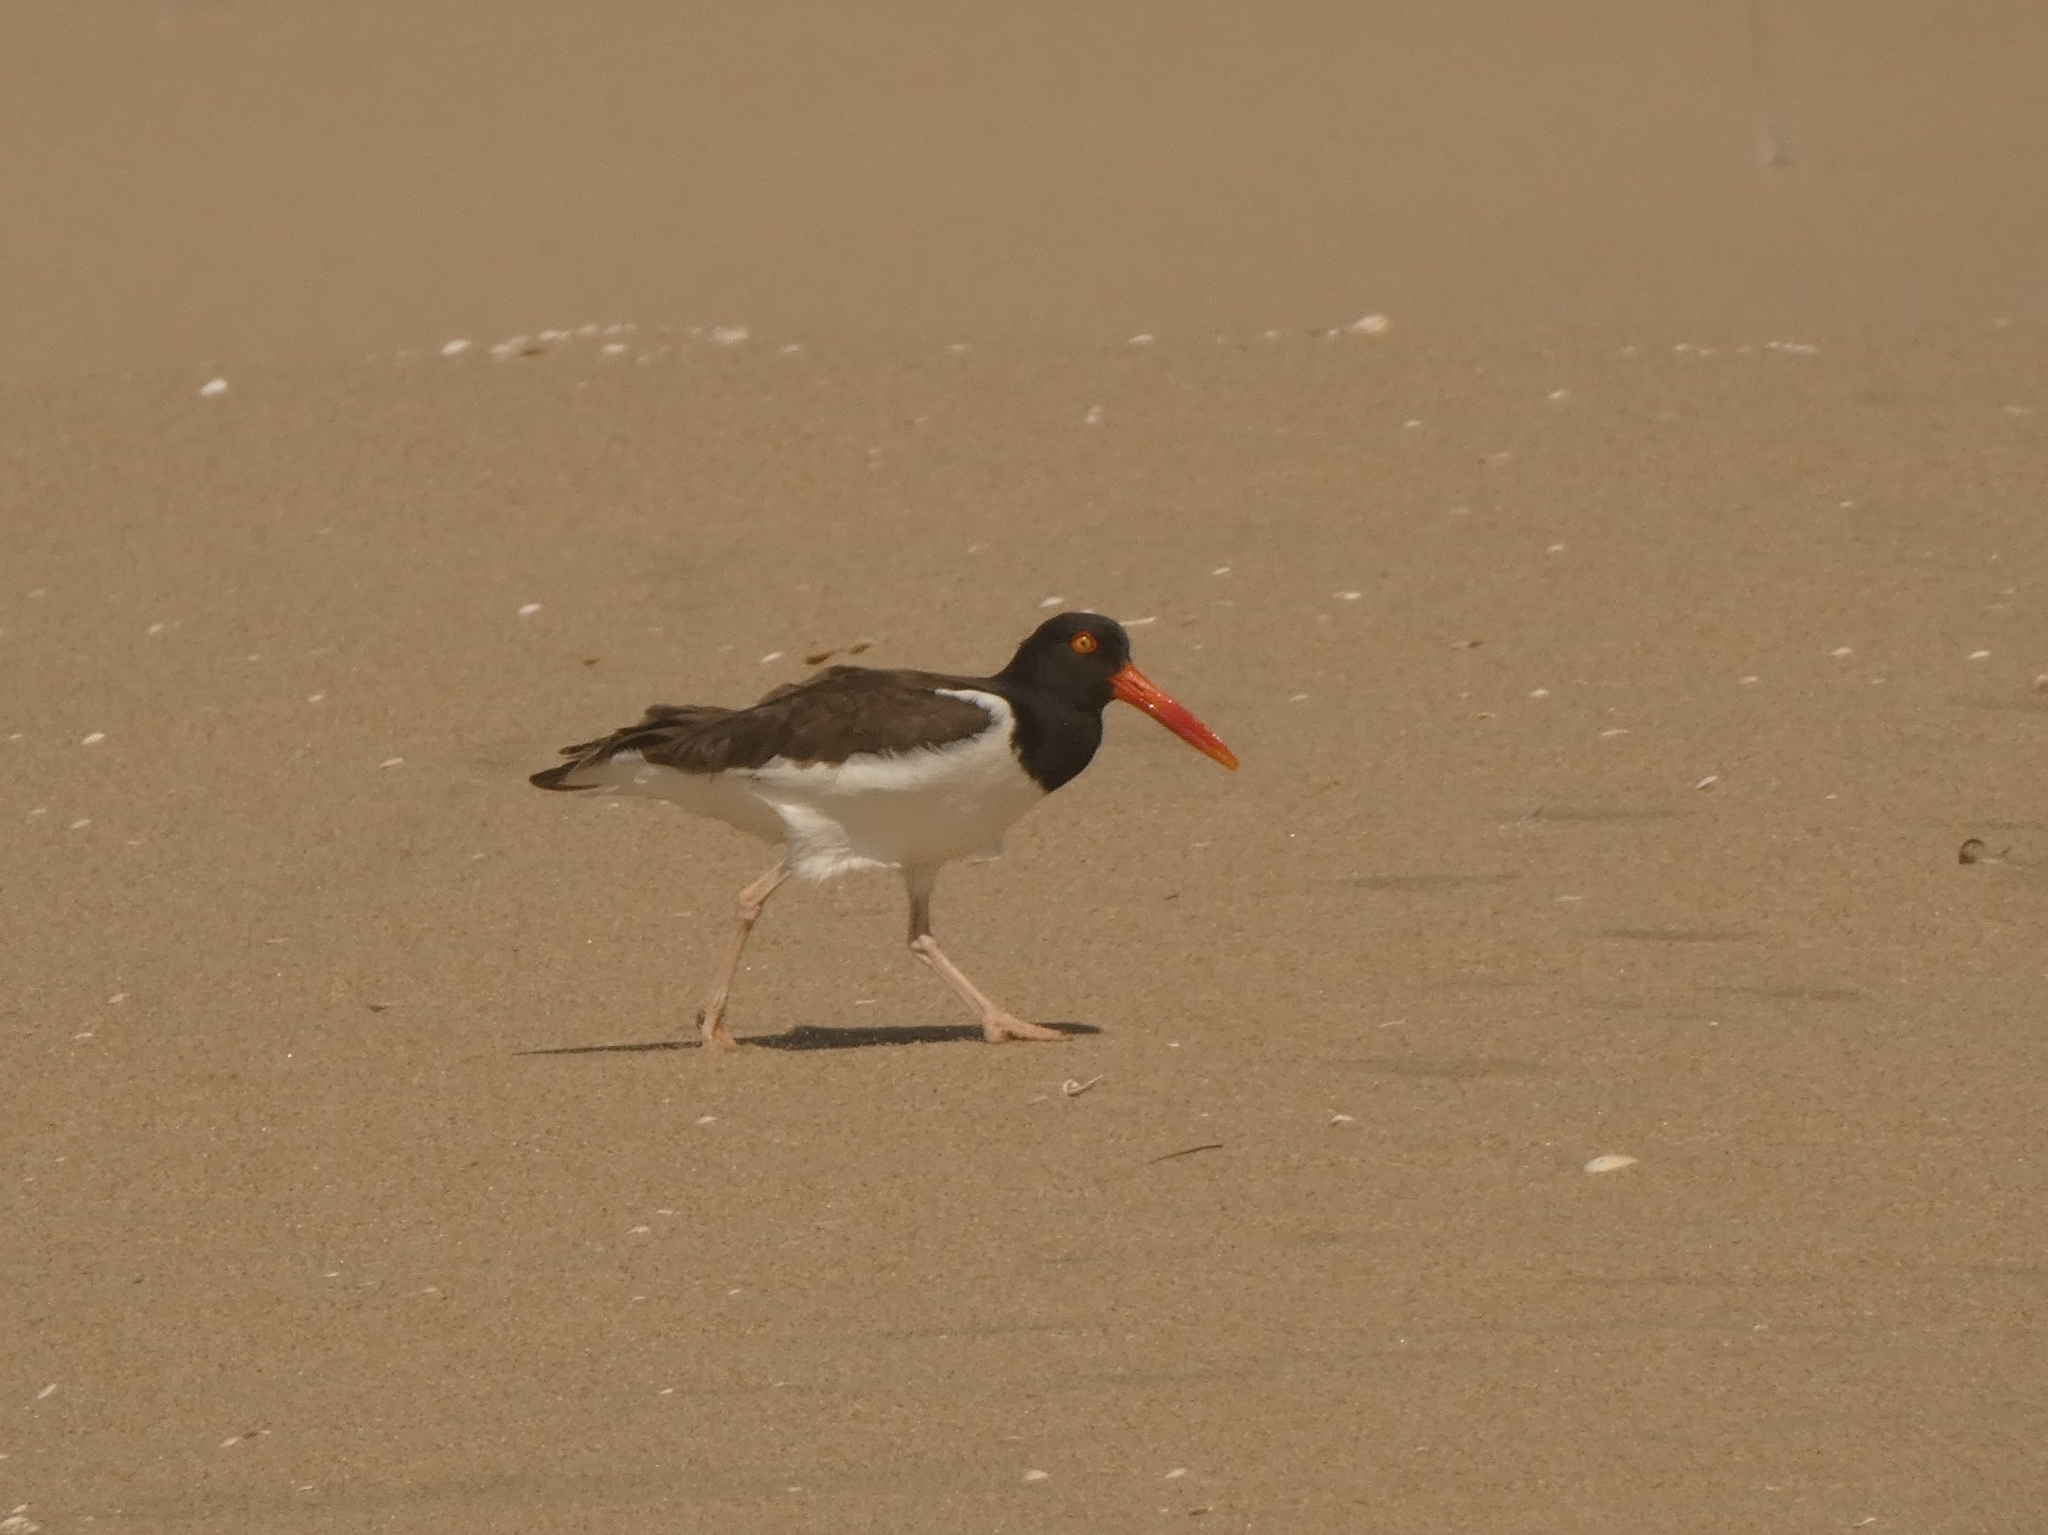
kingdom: Animalia
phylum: Chordata
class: Aves
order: Charadriiformes
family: Haematopodidae
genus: Haematopus
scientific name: Haematopus palliatus
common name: American oystercatcher
